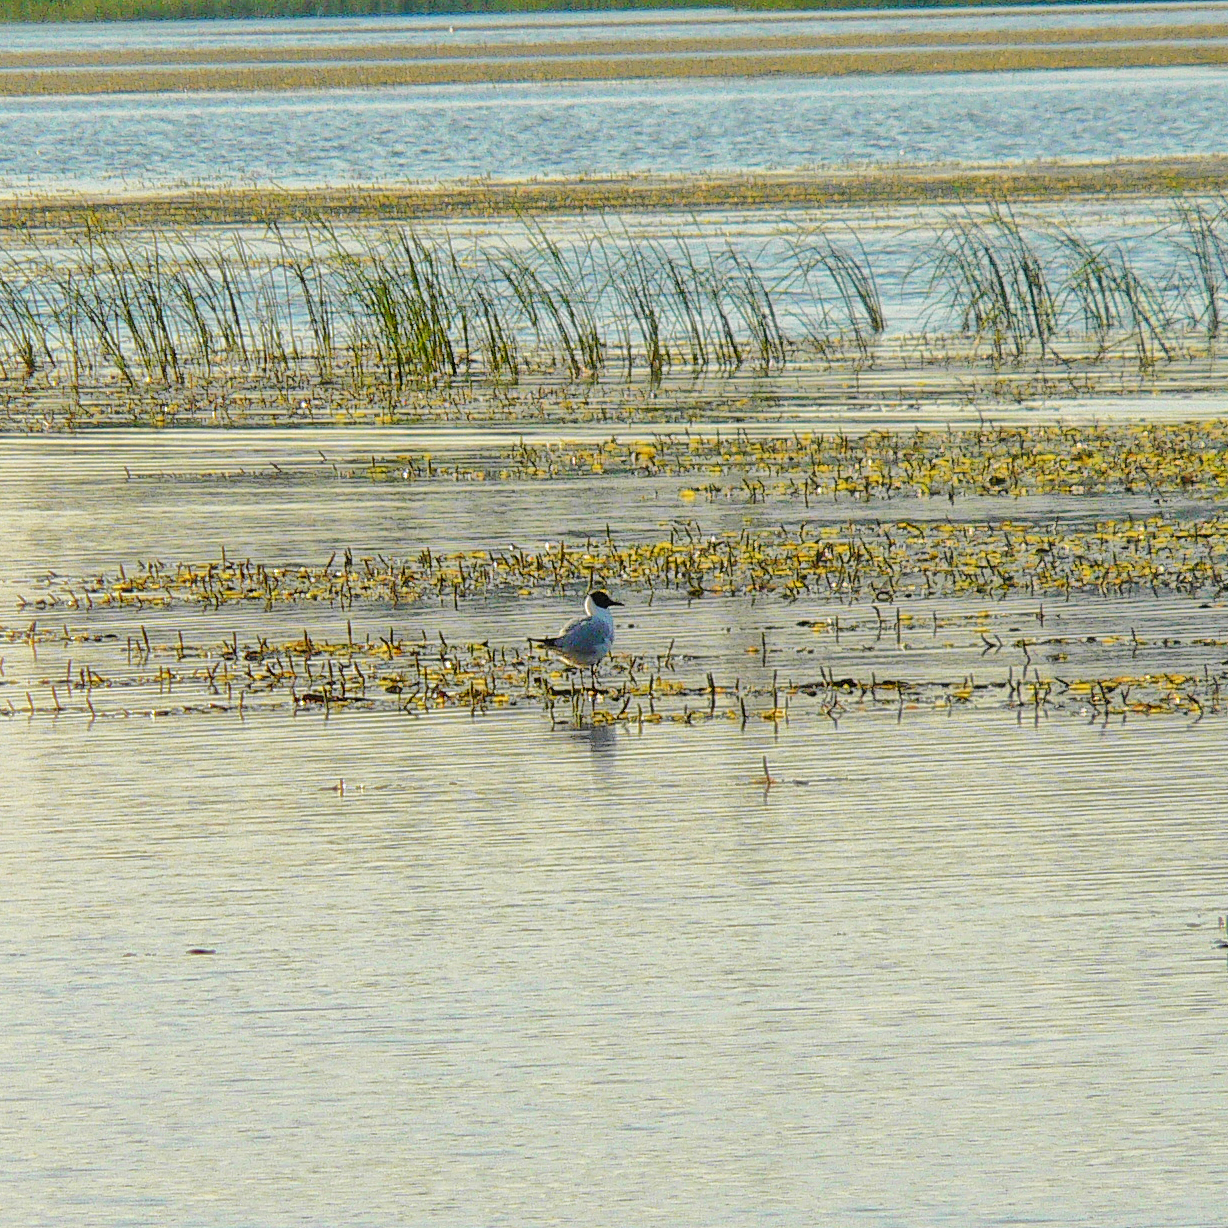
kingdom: Animalia
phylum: Chordata
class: Aves
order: Charadriiformes
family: Laridae
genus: Chroicocephalus
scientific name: Chroicocephalus ridibundus
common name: Black-headed gull
